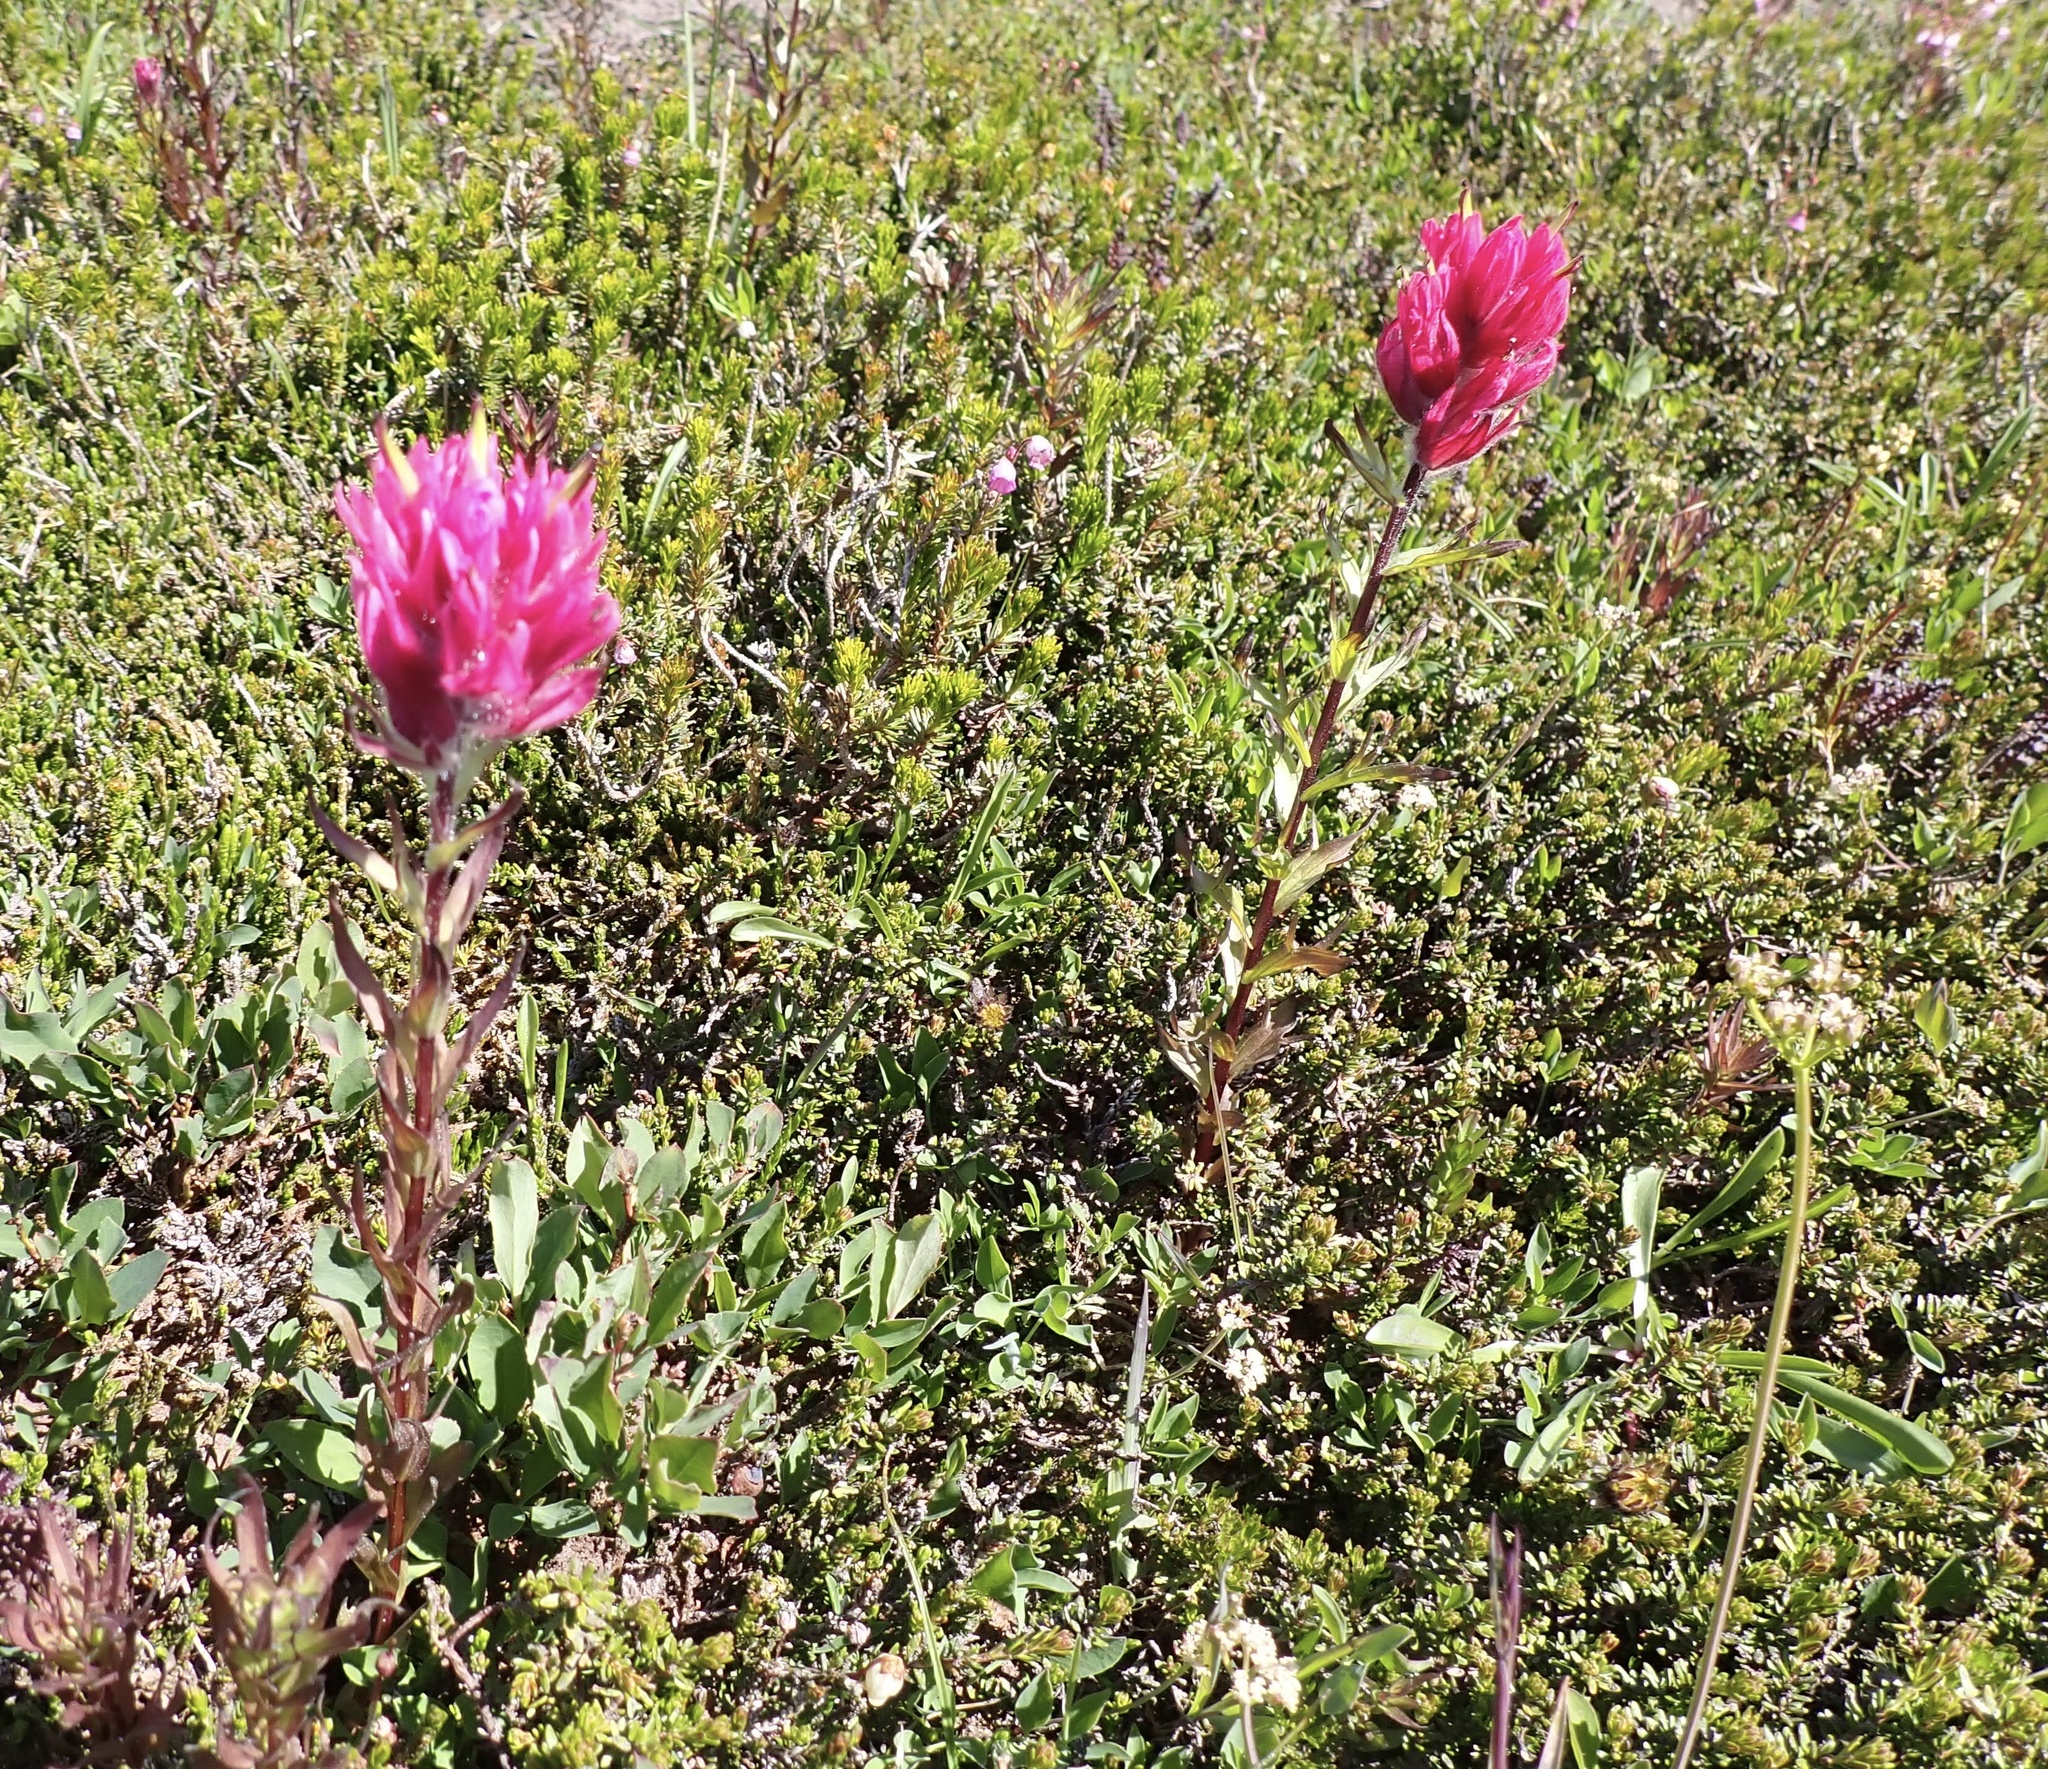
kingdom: Plantae
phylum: Tracheophyta
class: Magnoliopsida
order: Lamiales
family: Orobanchaceae
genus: Castilleja
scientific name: Castilleja parviflora
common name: Mountain paintbrush
